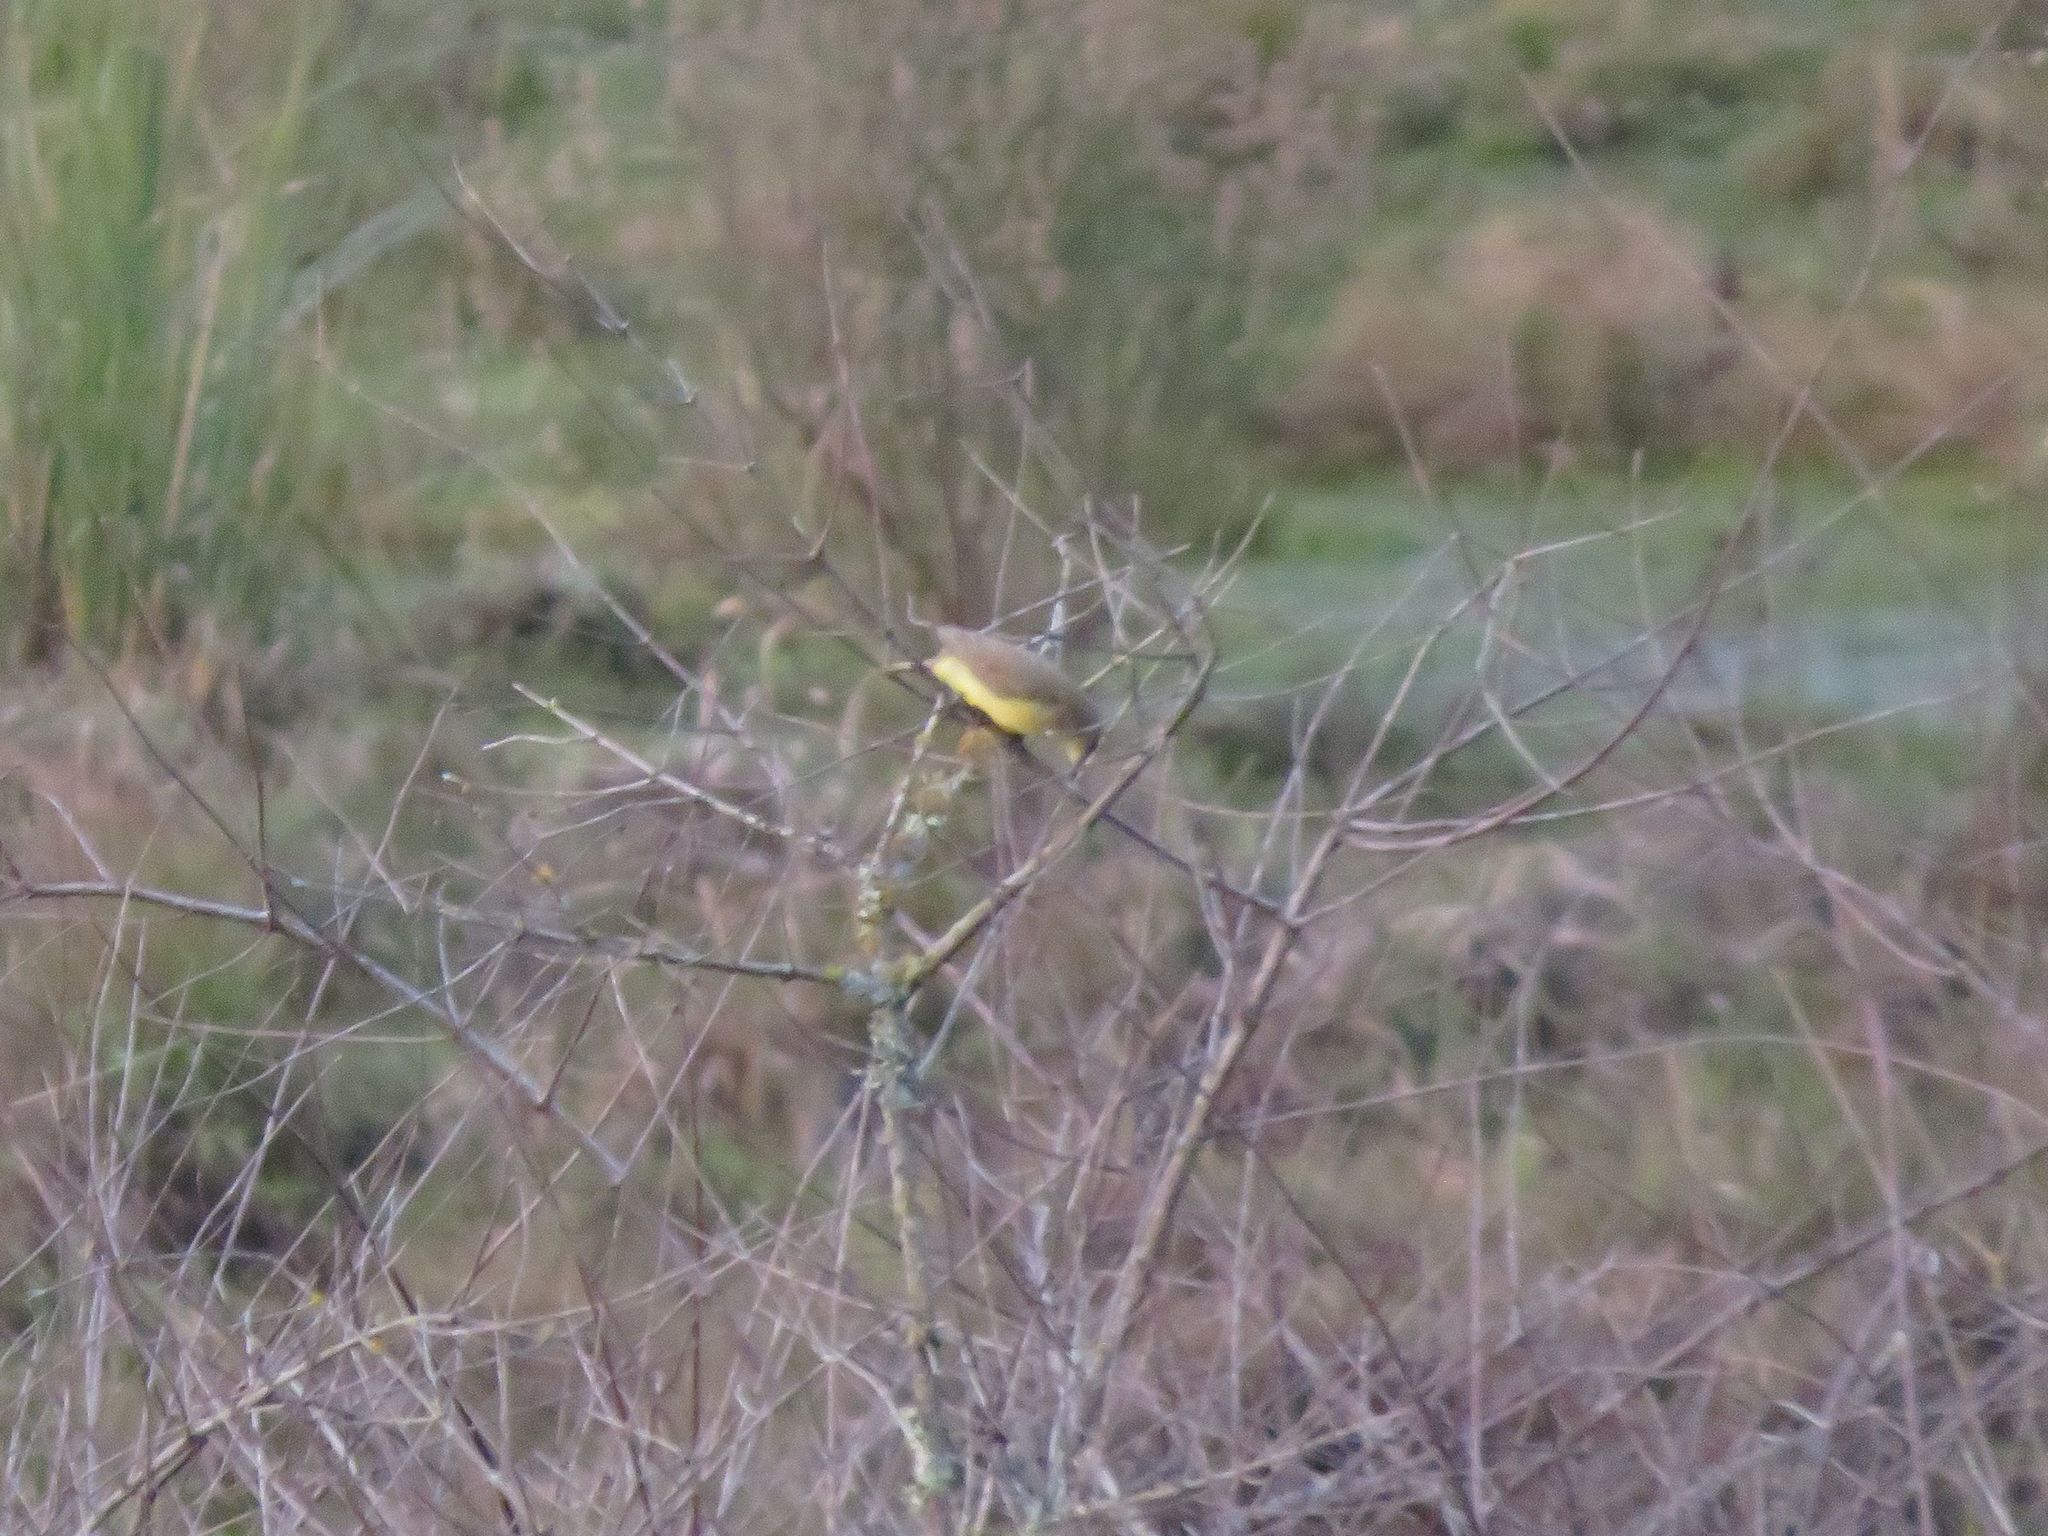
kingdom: Animalia
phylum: Chordata
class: Aves
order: Passeriformes
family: Tyrannidae
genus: Machetornis
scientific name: Machetornis rixosa
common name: Cattle tyrant
